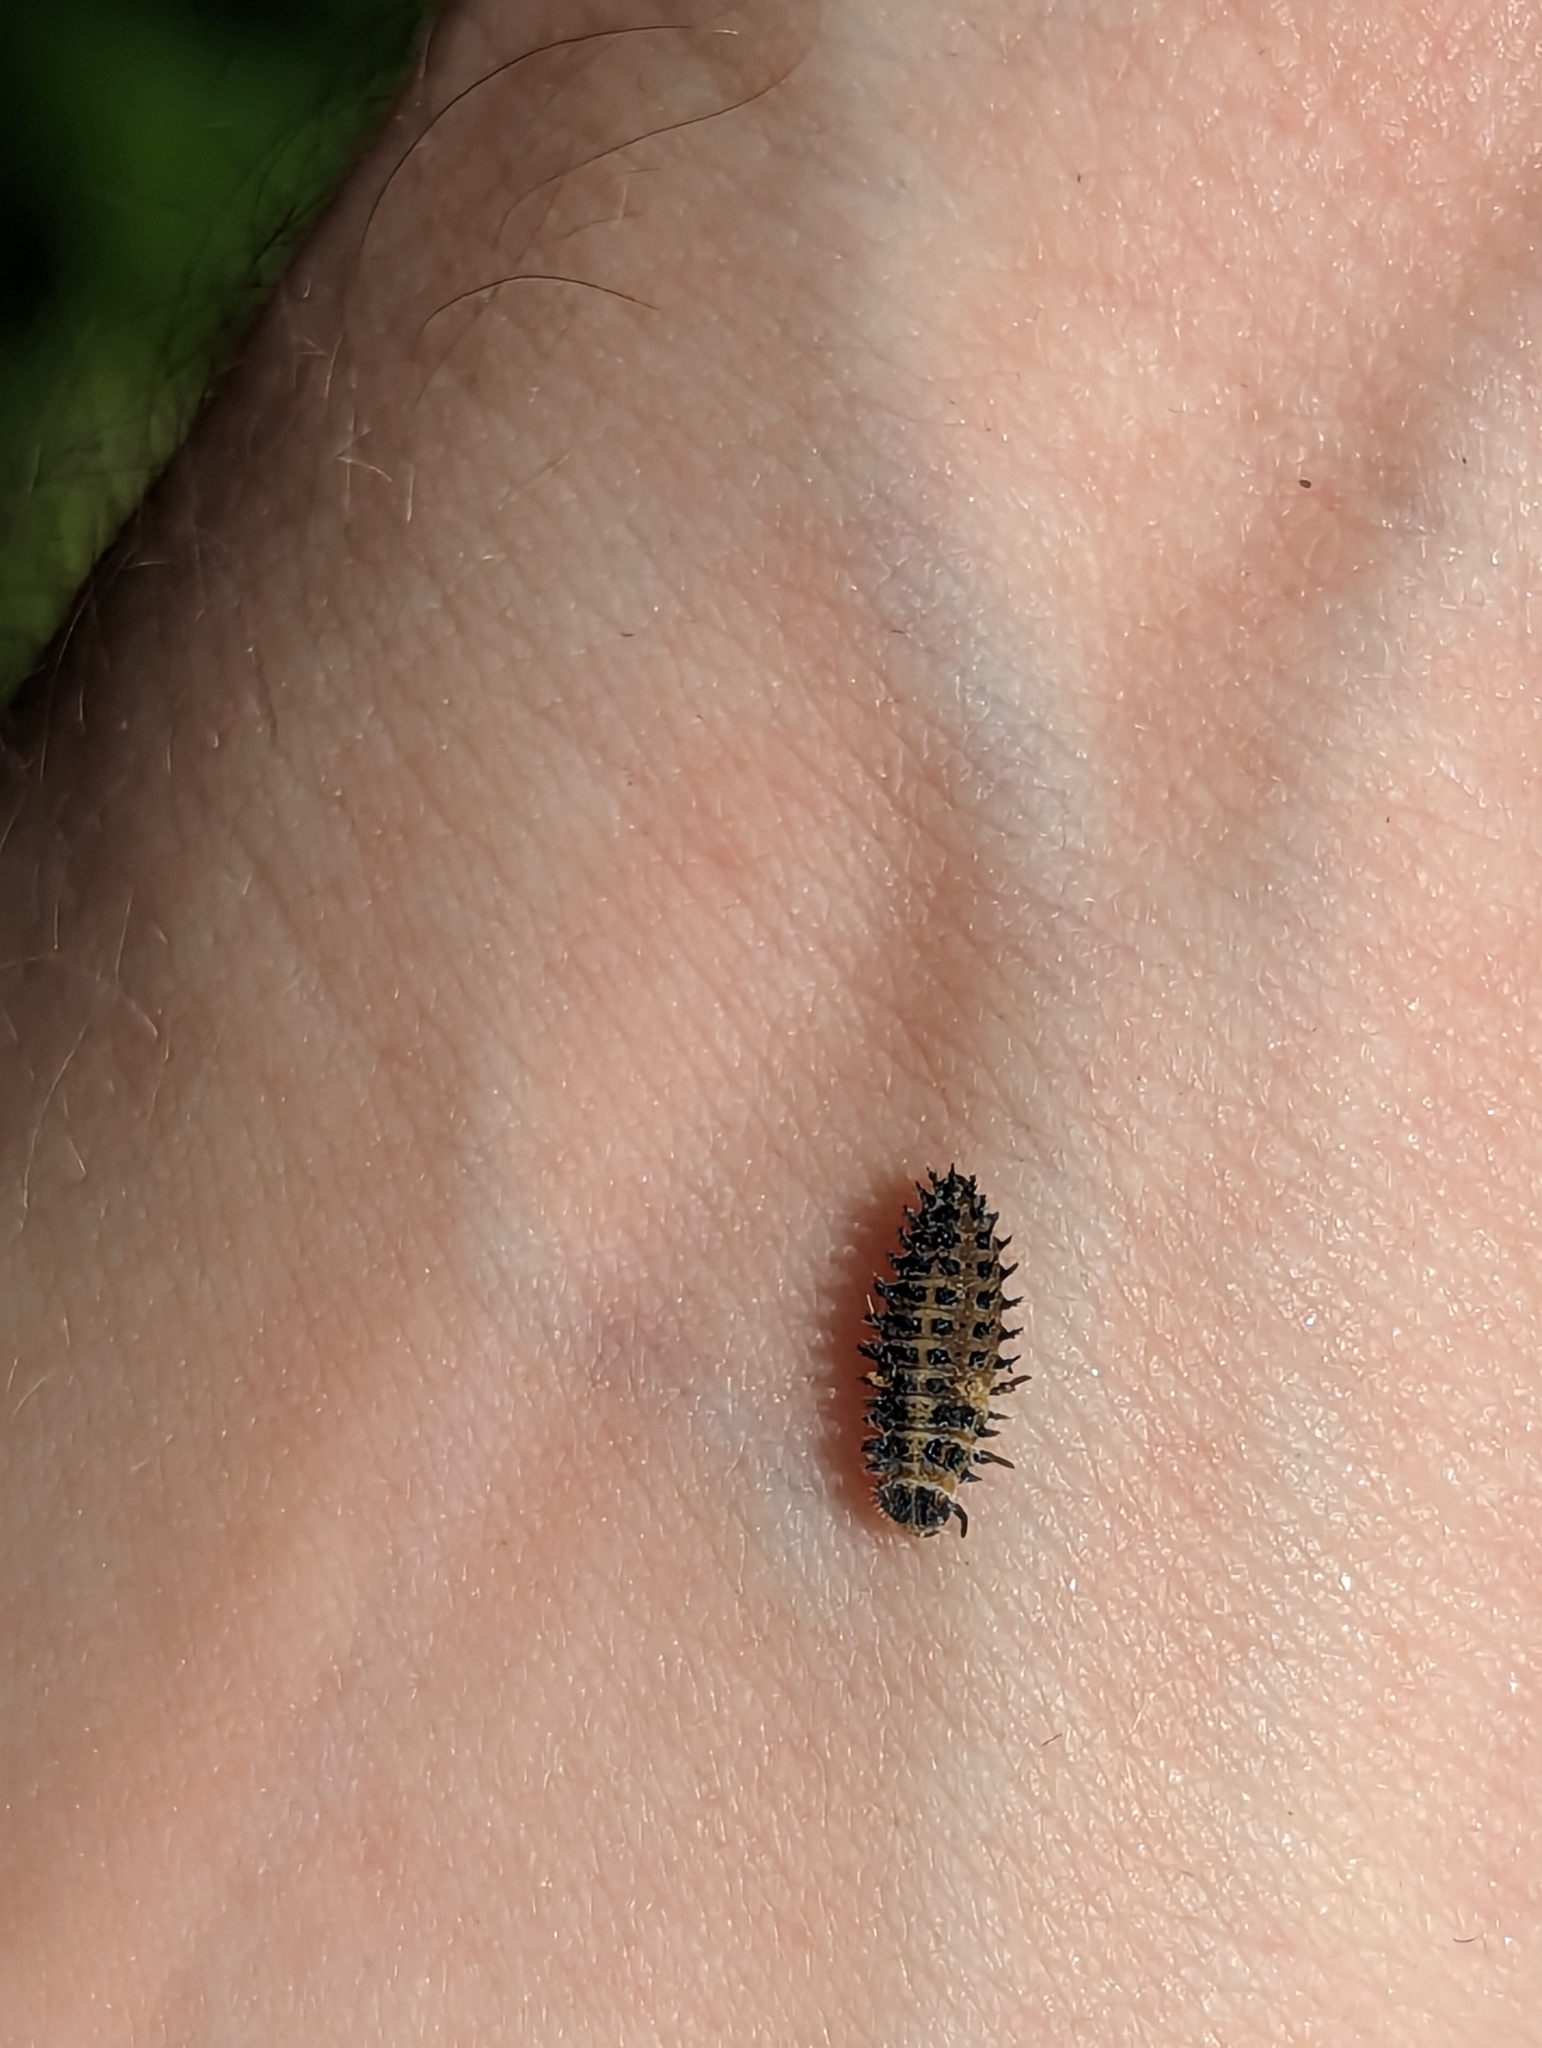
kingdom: Animalia
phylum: Arthropoda
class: Insecta
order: Coleoptera
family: Coccinellidae
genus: Brumus
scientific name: Brumus quadripustulatus
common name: Ladybird beetle
